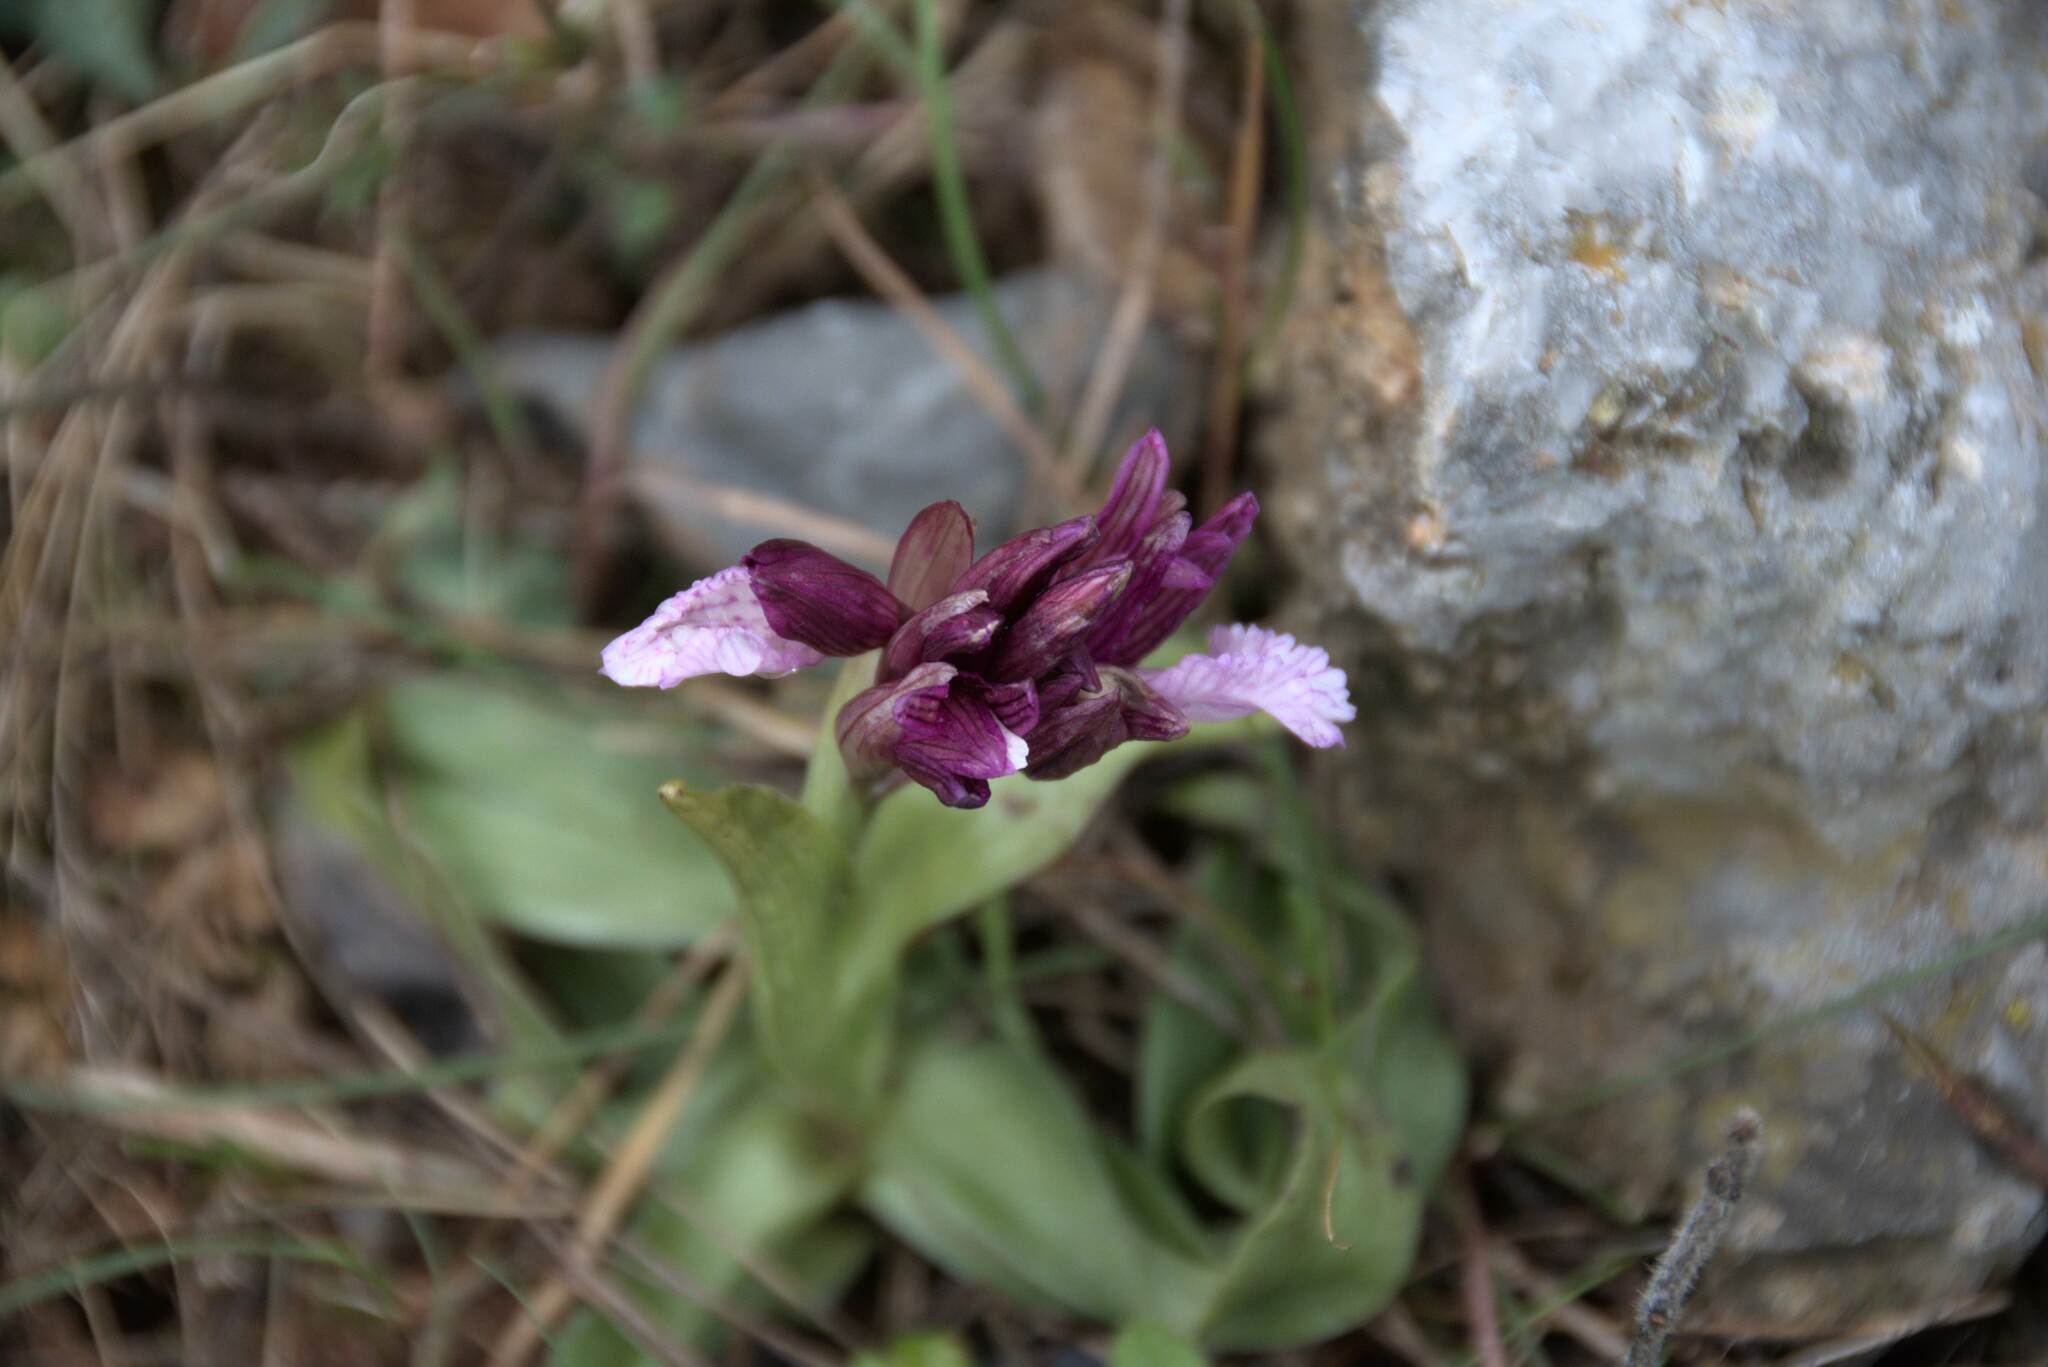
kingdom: Plantae
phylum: Tracheophyta
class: Liliopsida
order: Asparagales
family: Orchidaceae
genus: Anacamptis
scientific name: Anacamptis papilionacea
